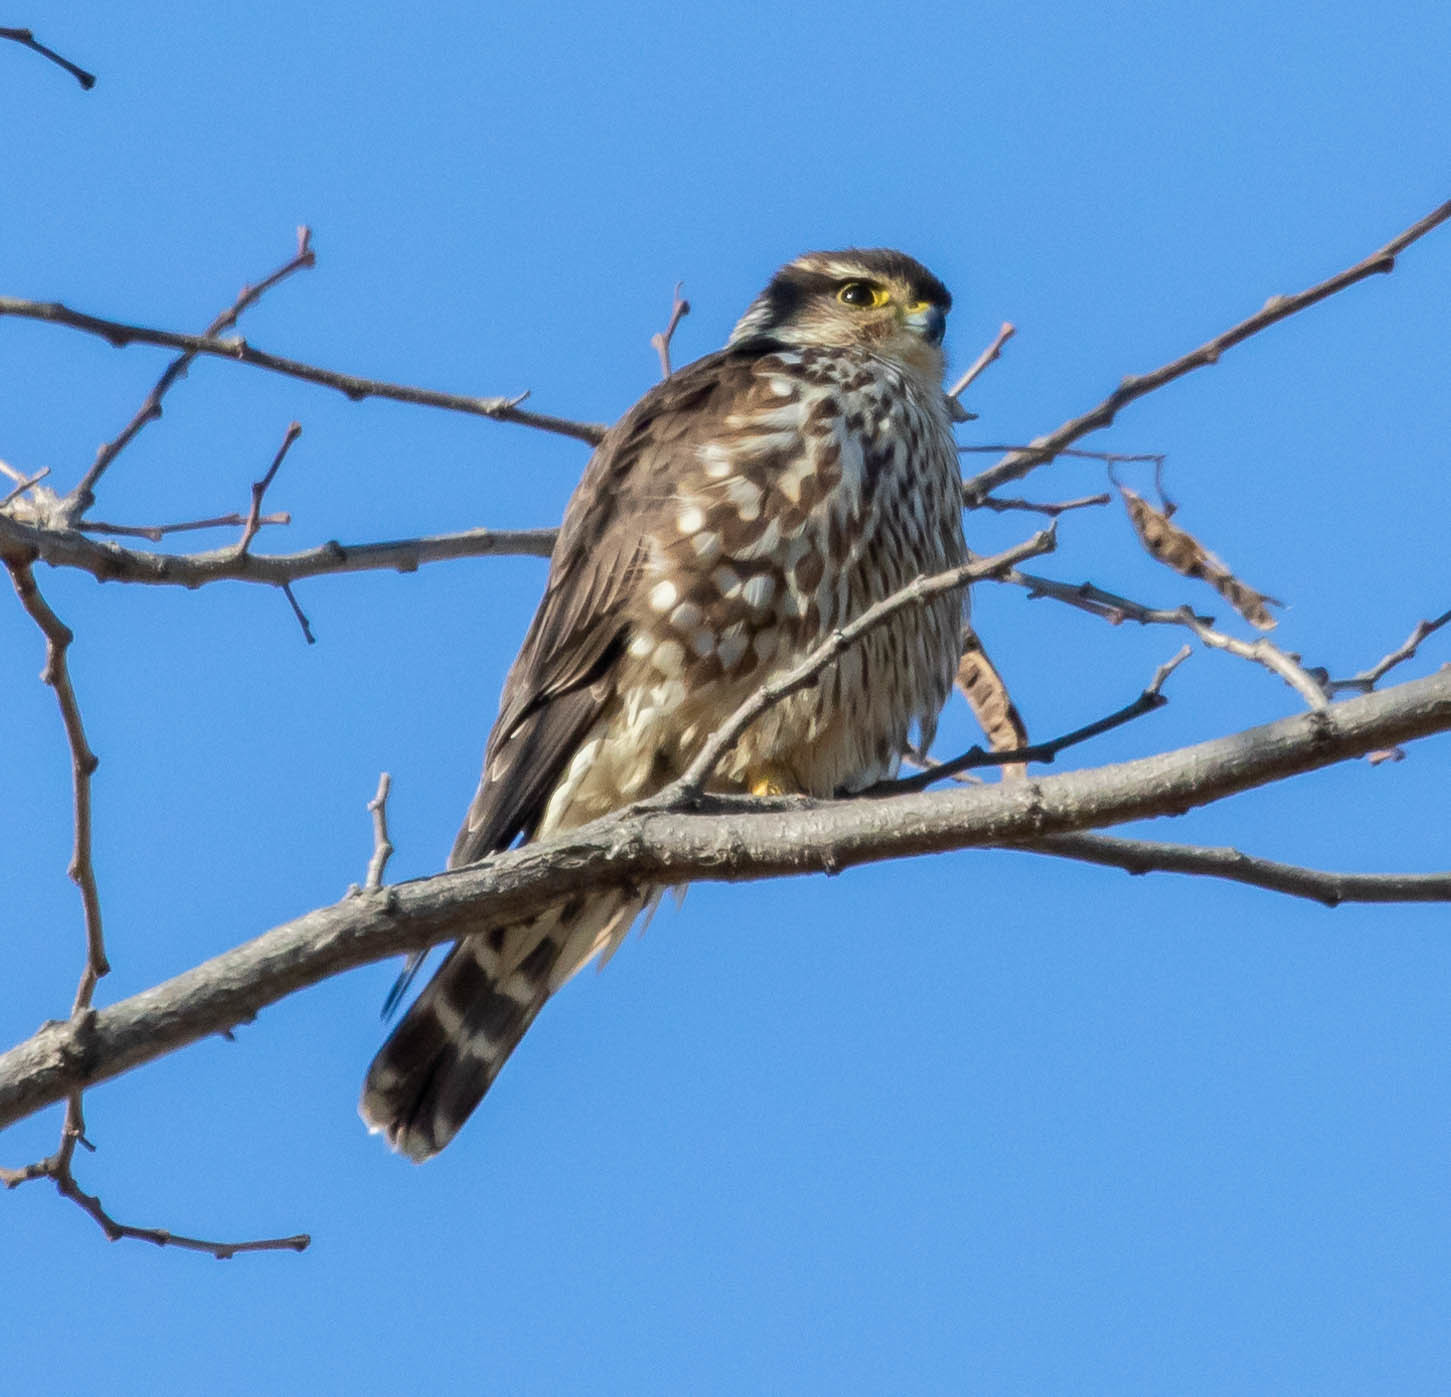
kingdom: Animalia
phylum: Chordata
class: Aves
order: Falconiformes
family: Falconidae
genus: Falco
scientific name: Falco columbarius
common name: Merlin
